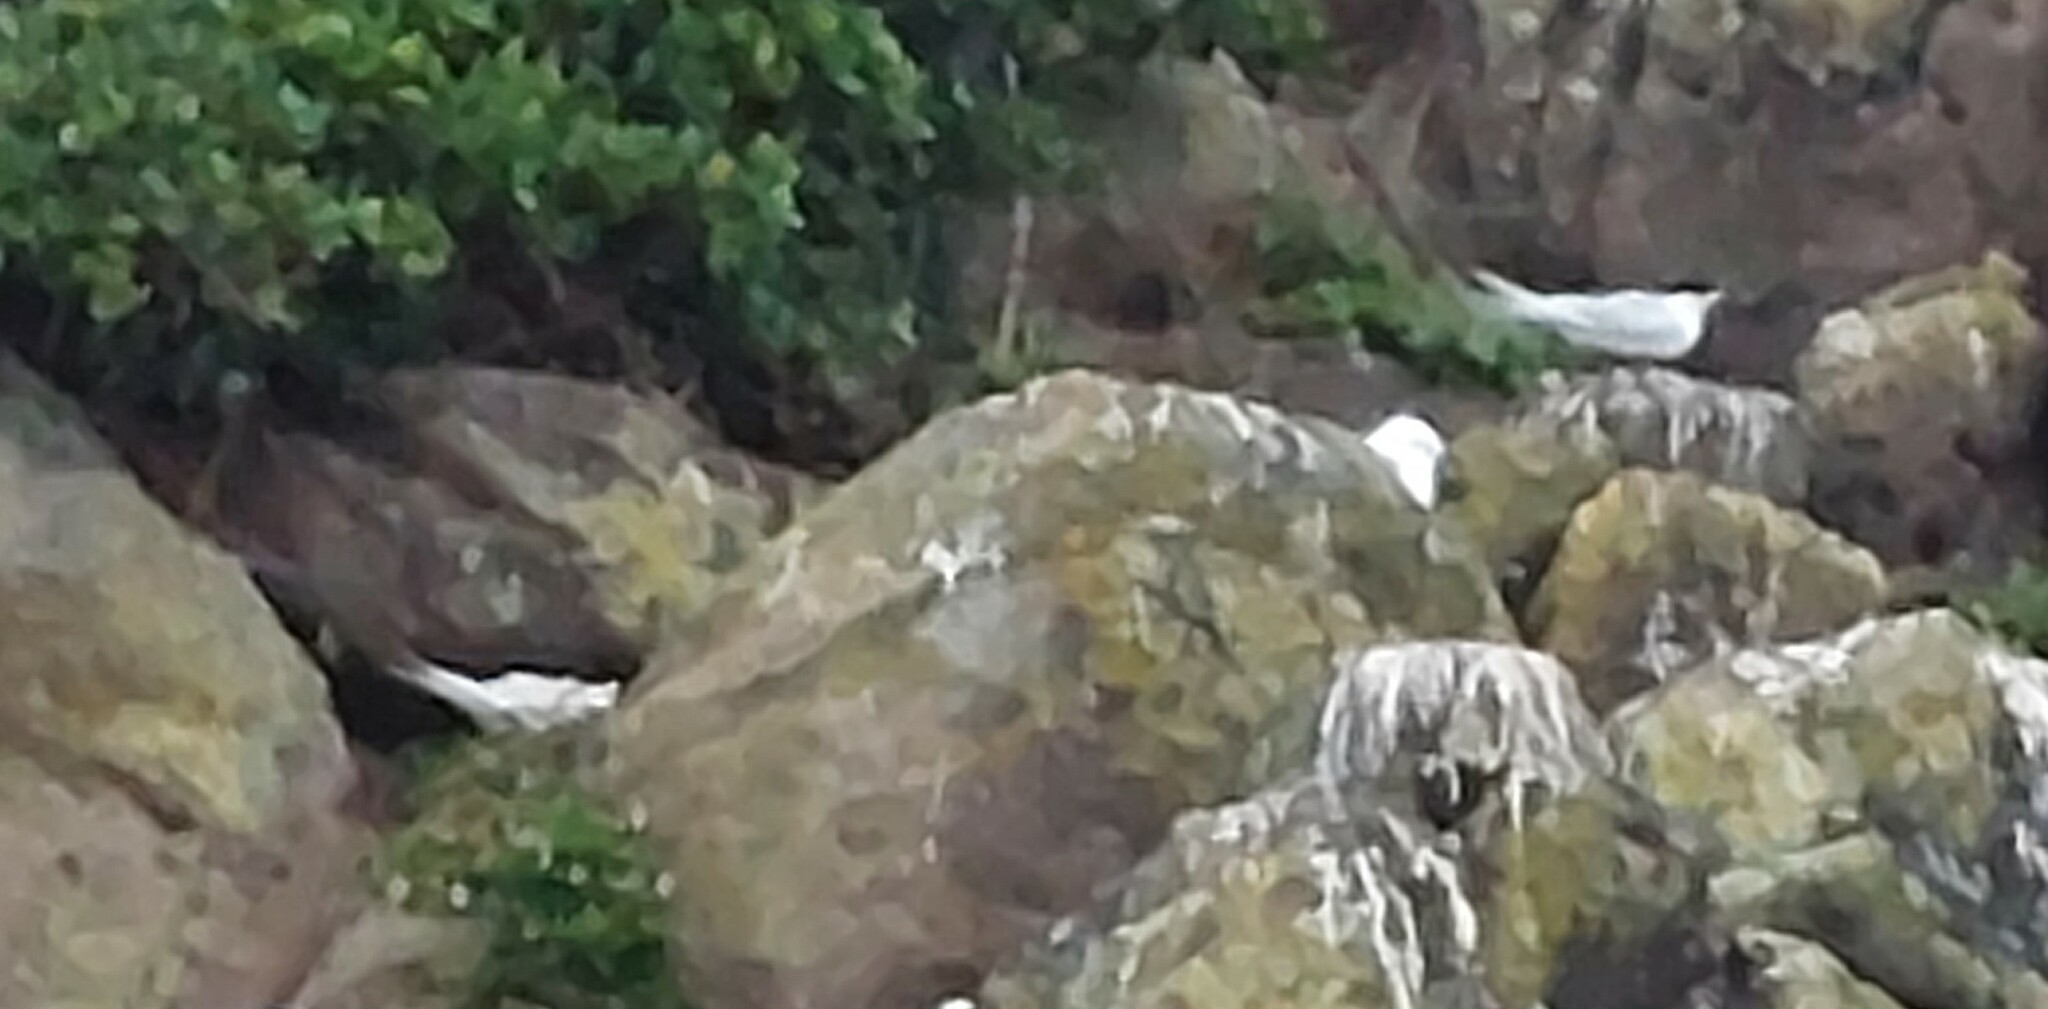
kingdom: Animalia
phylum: Chordata
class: Aves
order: Charadriiformes
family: Laridae
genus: Sterna
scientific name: Sterna striata
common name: White-fronted tern
